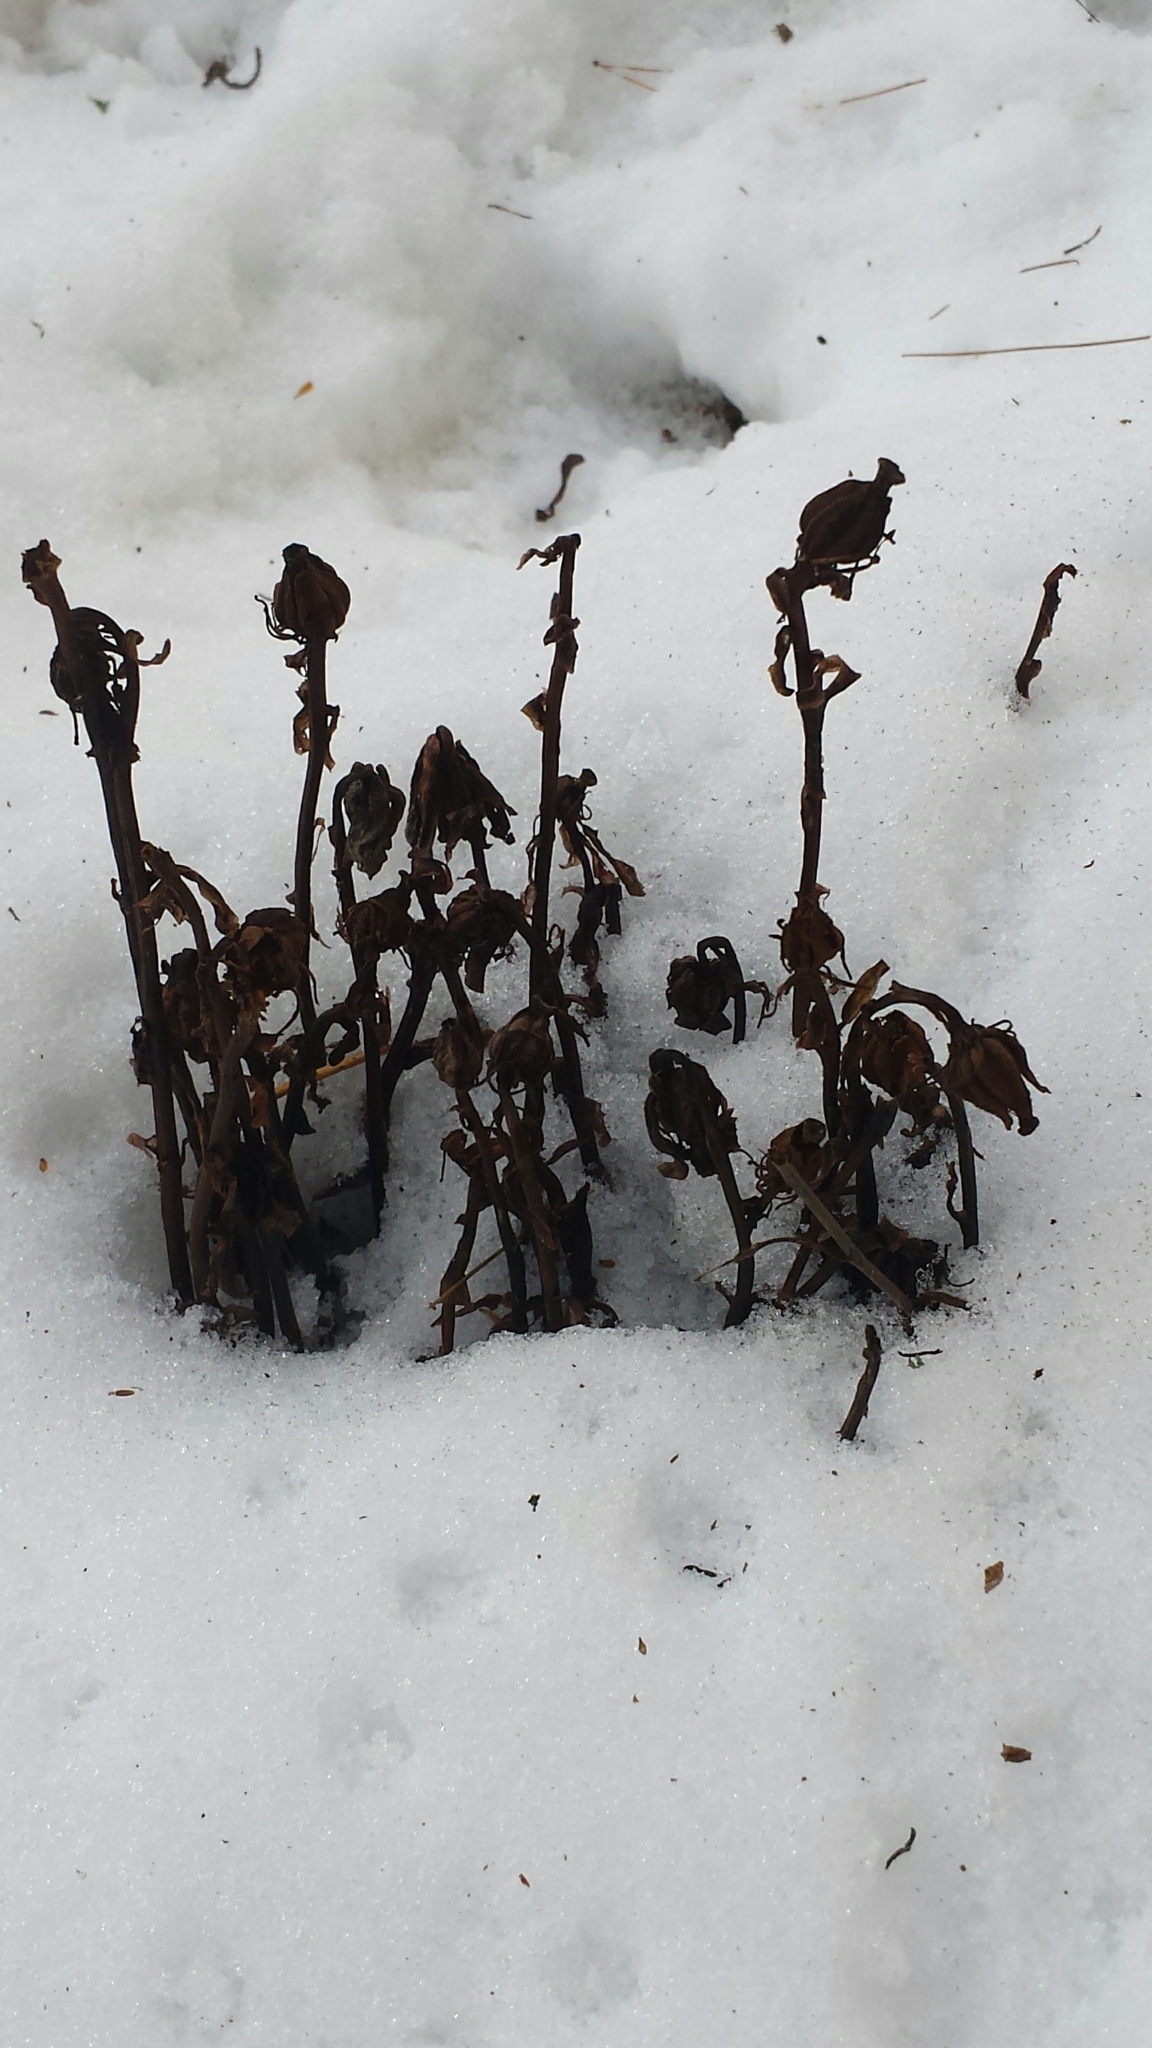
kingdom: Plantae
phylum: Tracheophyta
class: Magnoliopsida
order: Ericales
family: Ericaceae
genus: Monotropa
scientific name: Monotropa uniflora
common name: Convulsion root
